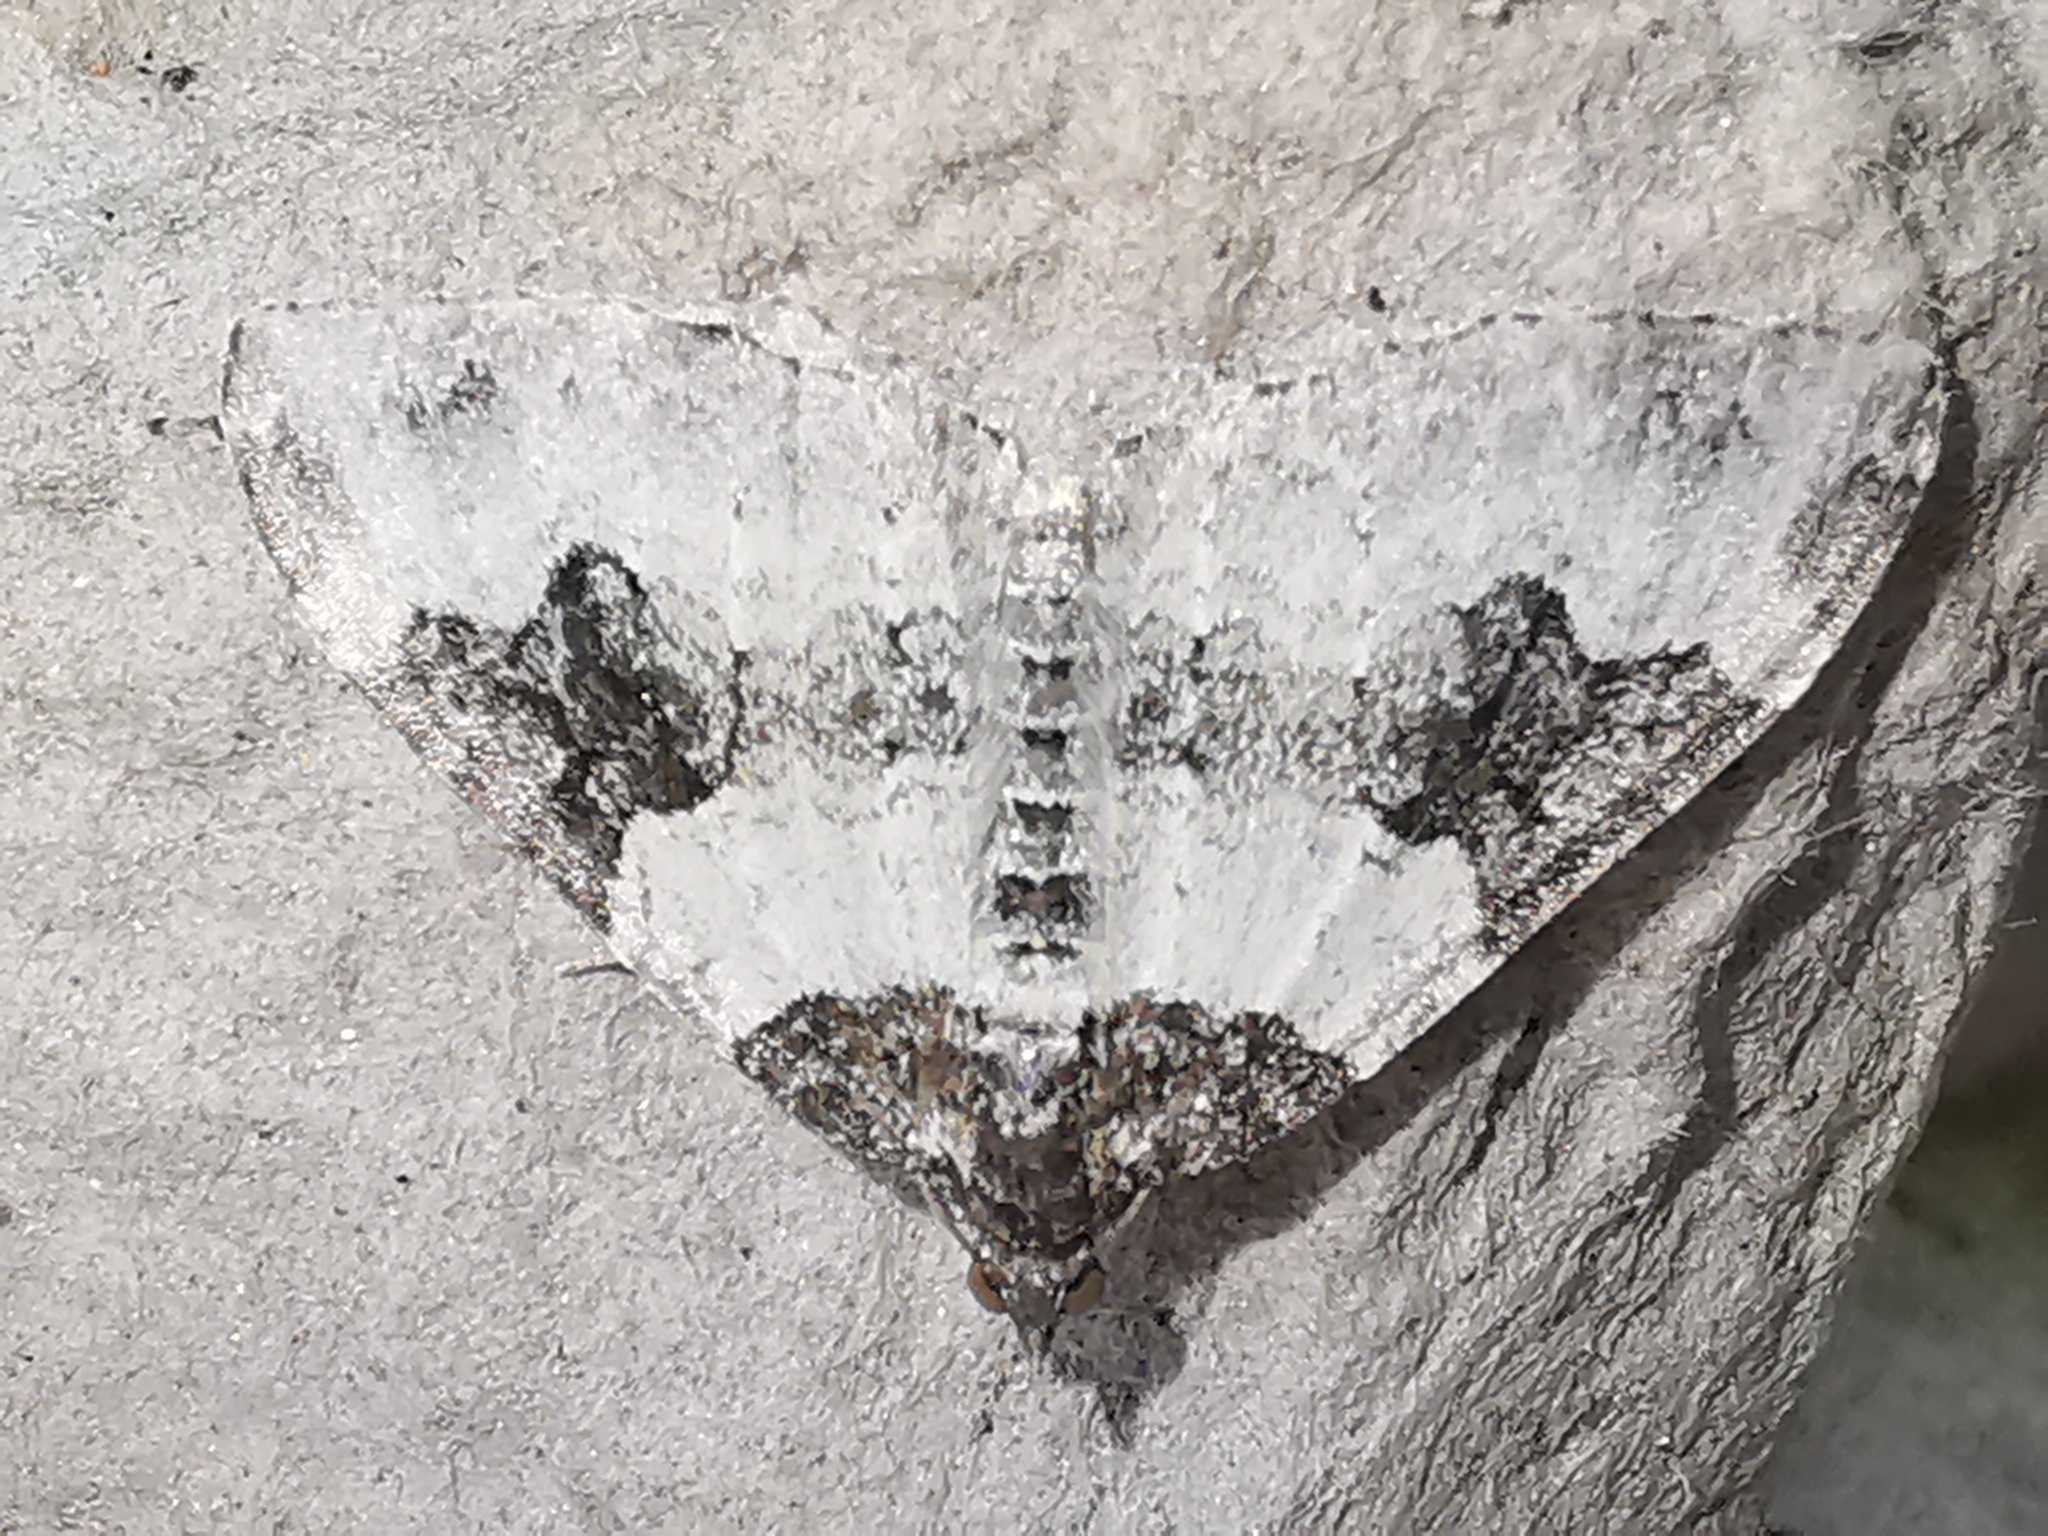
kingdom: Animalia
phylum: Arthropoda
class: Insecta
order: Lepidoptera
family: Geometridae
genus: Xanthorhoe
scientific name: Xanthorhoe fluctuata
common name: Garden carpet
